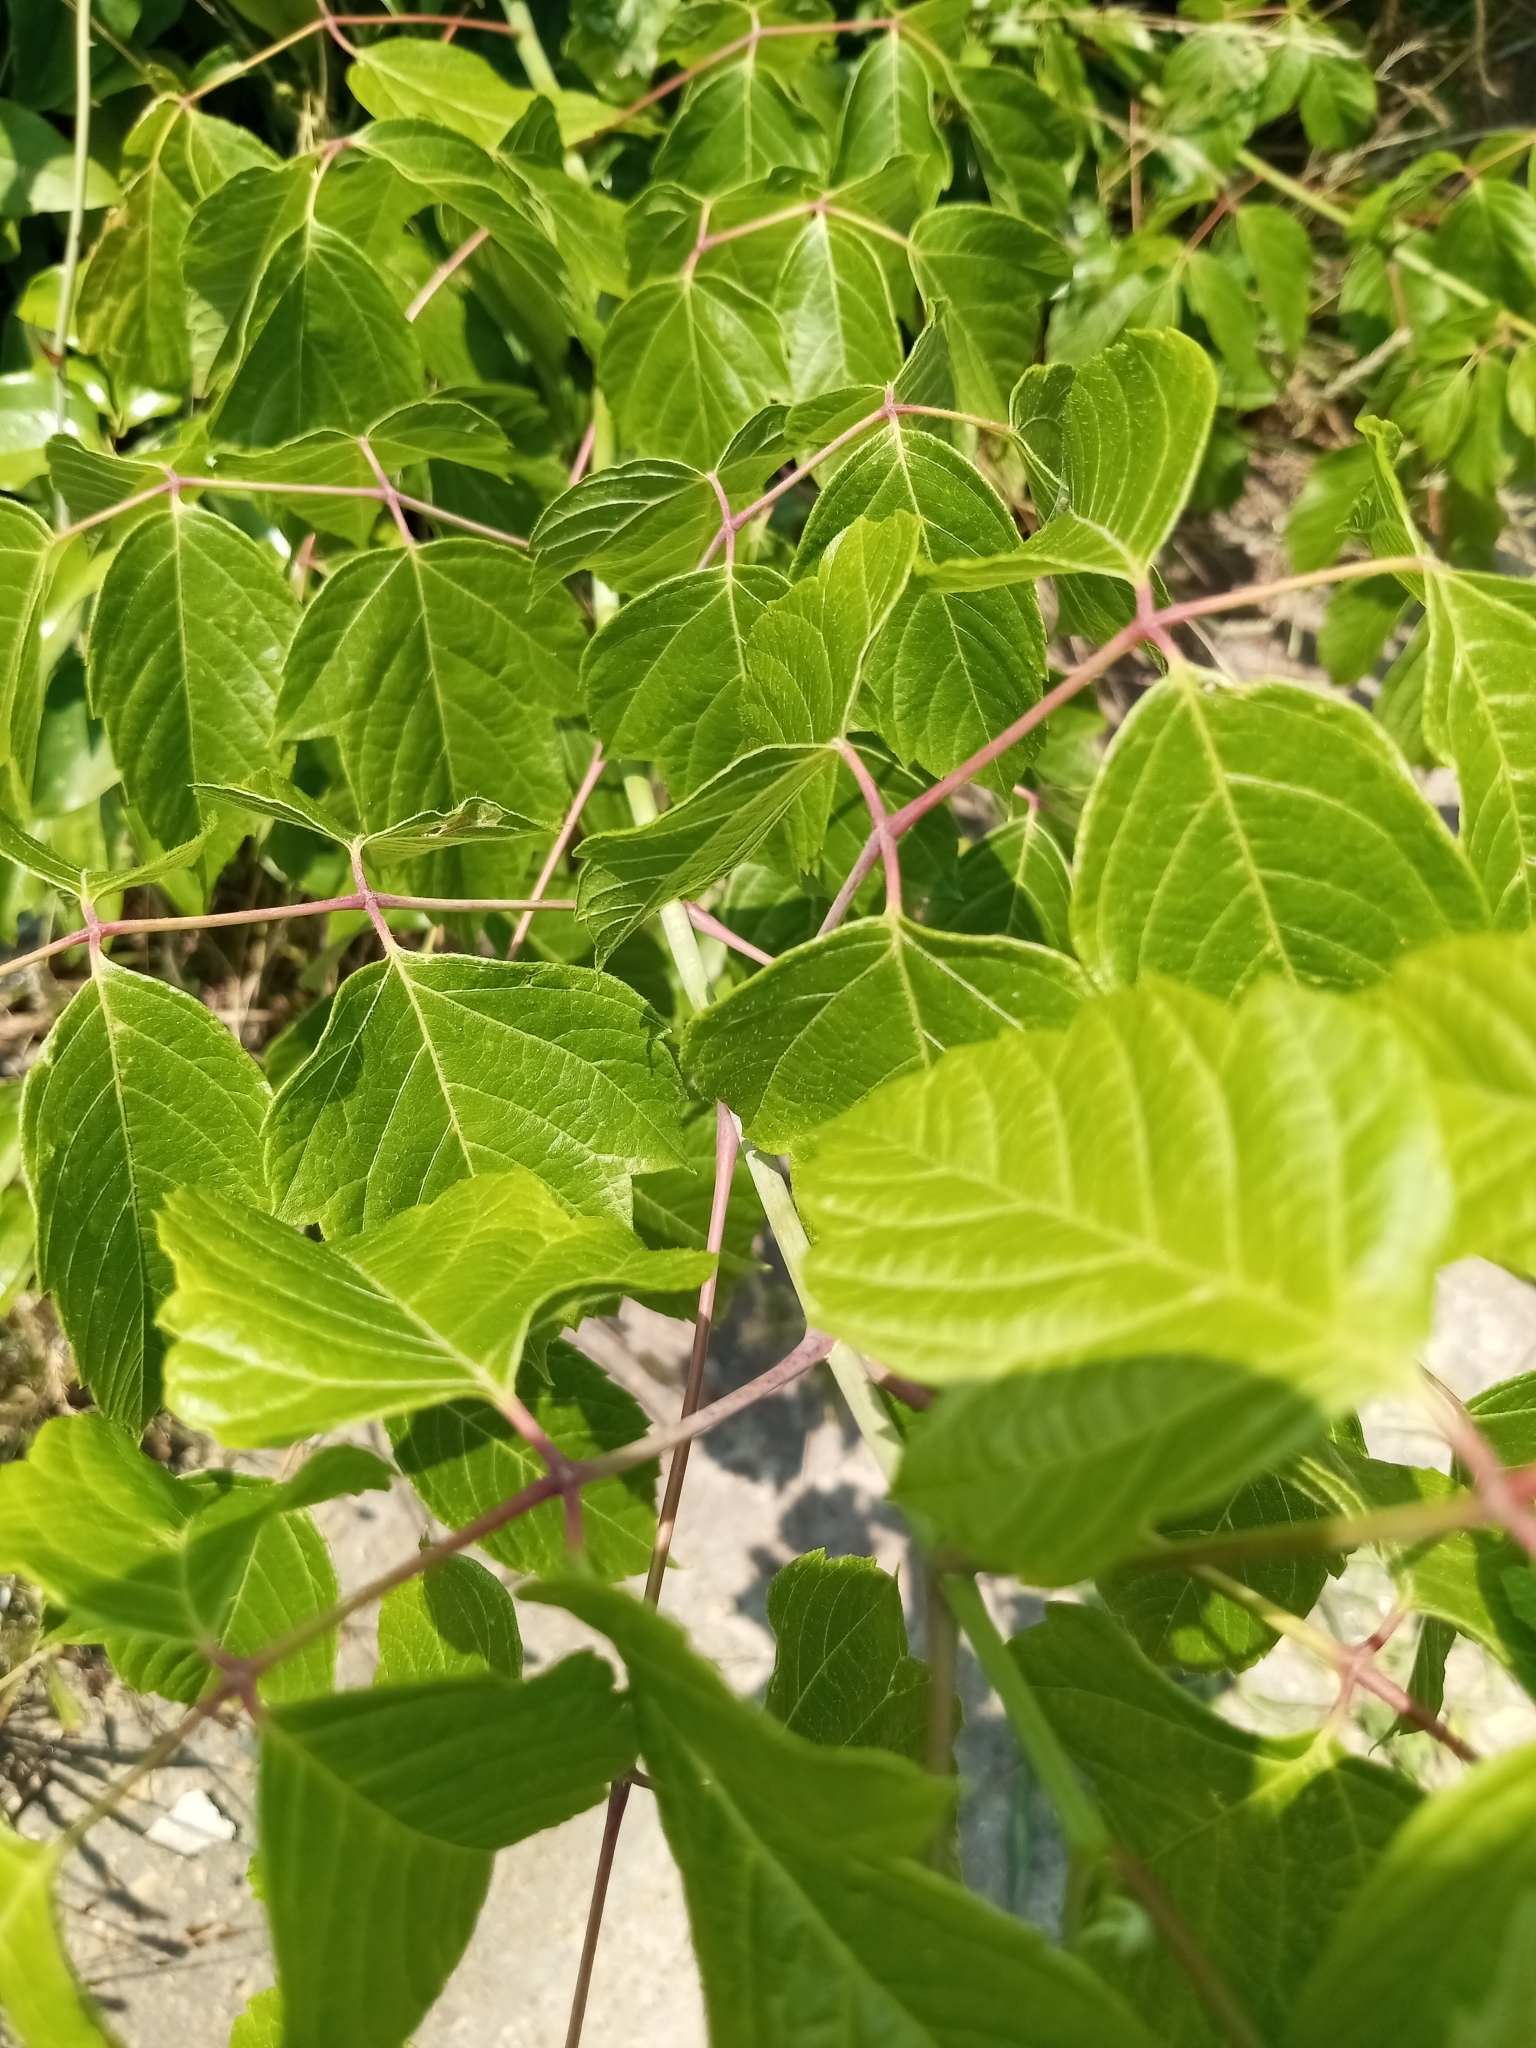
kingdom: Plantae
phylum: Tracheophyta
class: Magnoliopsida
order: Sapindales
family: Sapindaceae
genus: Acer
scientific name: Acer negundo
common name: Ashleaf maple
